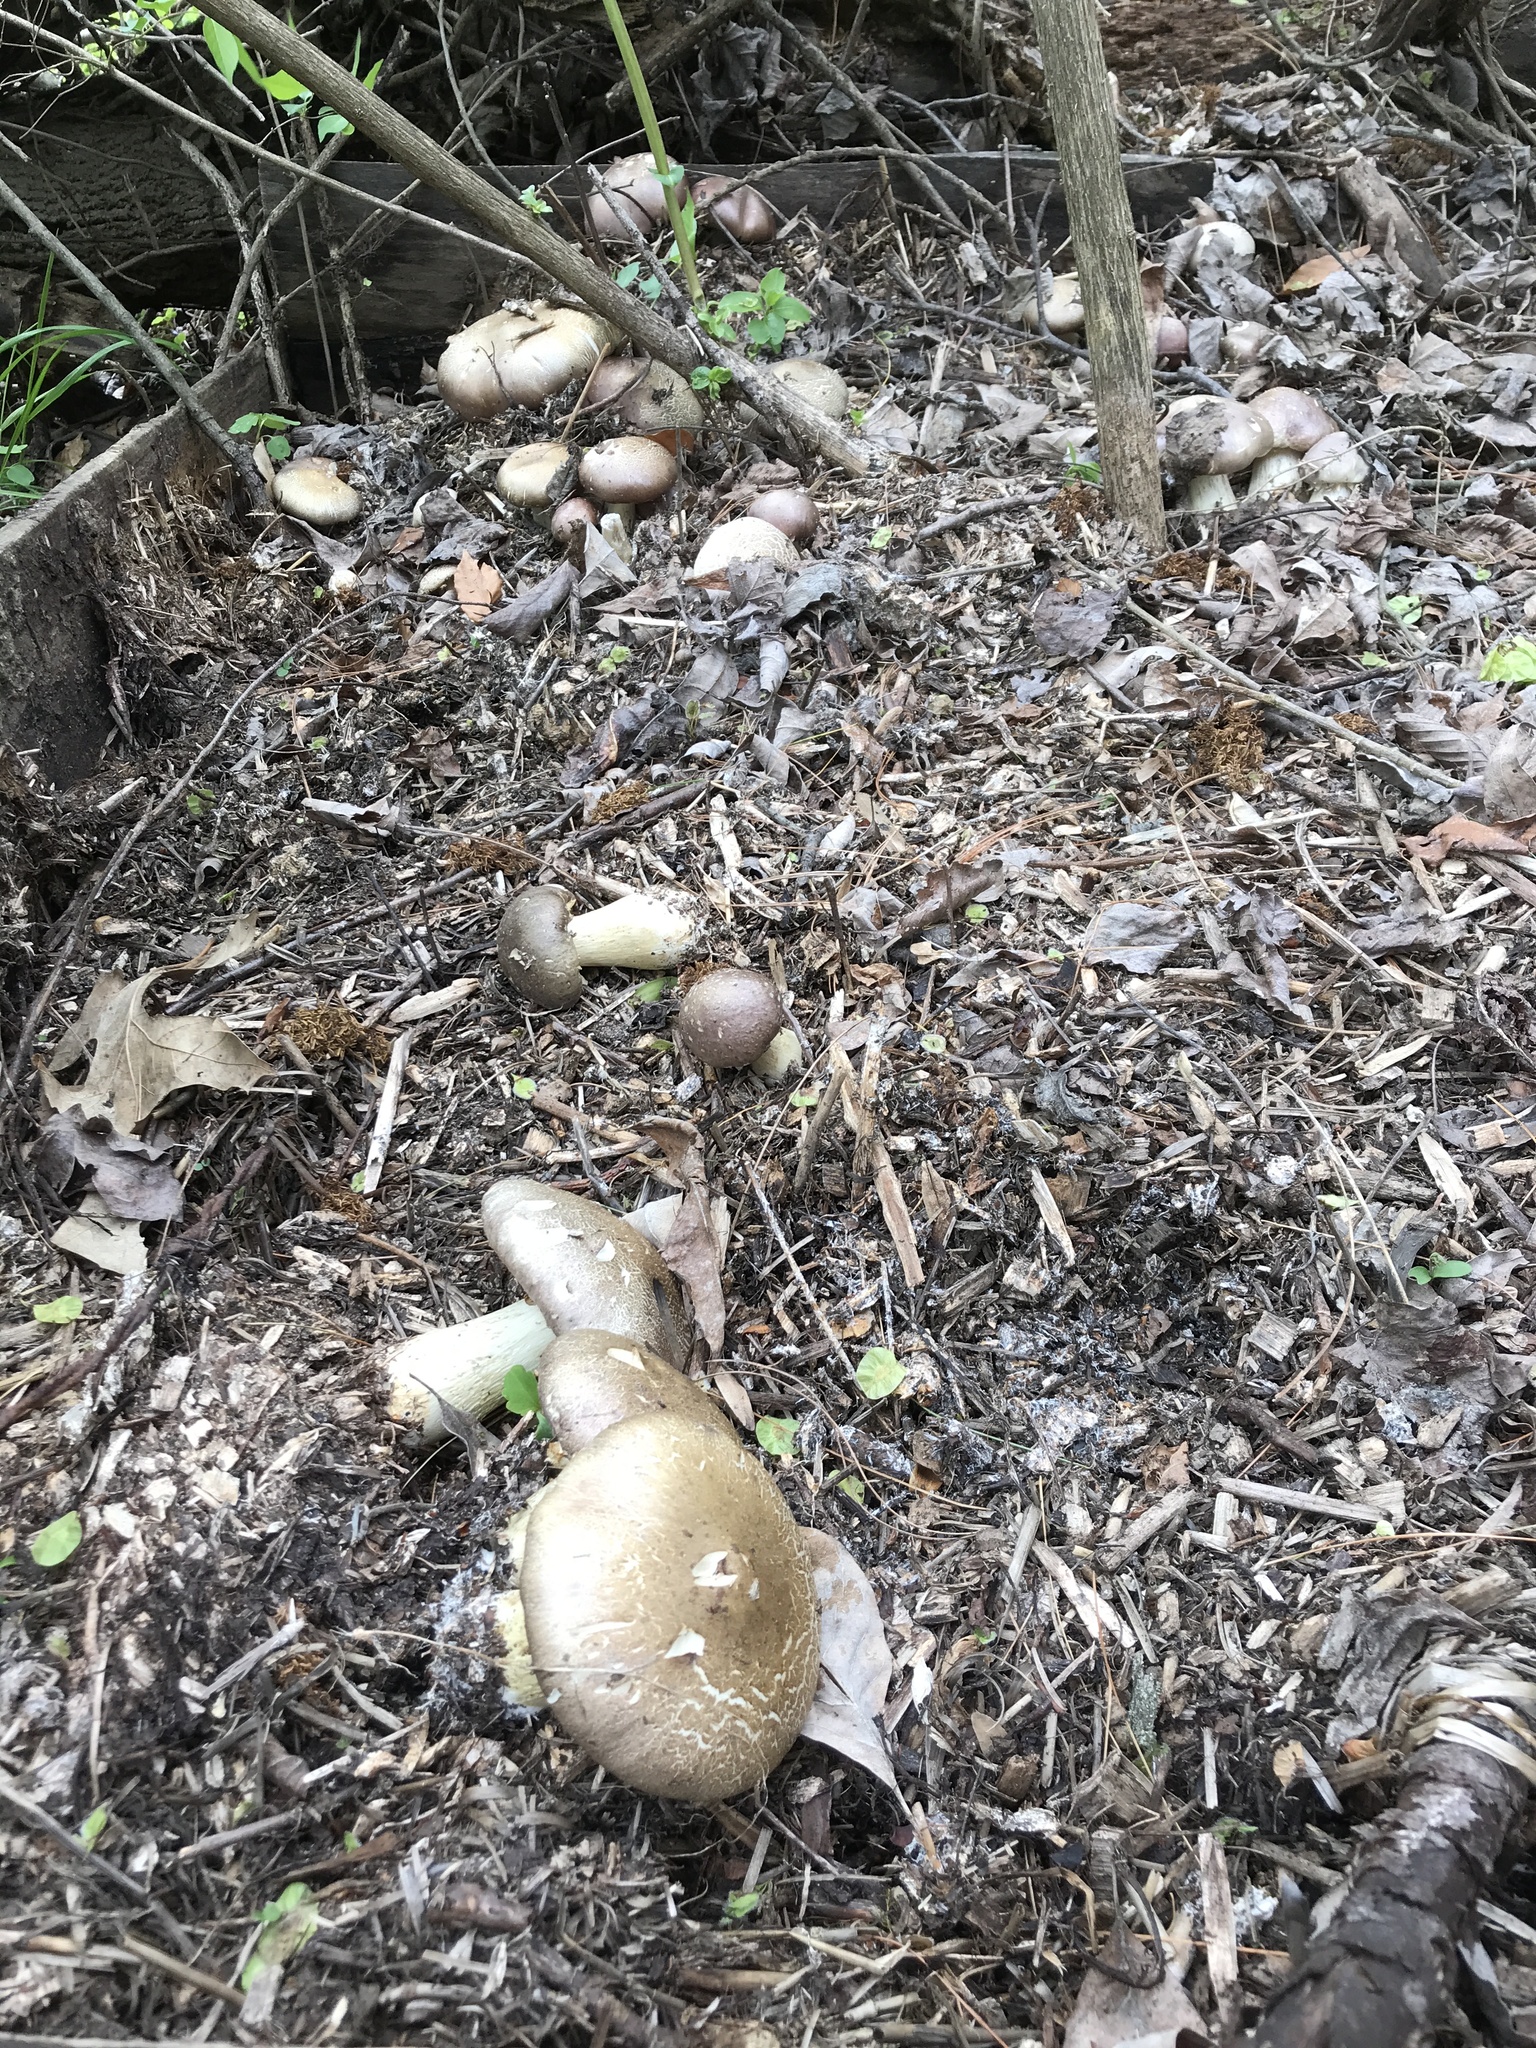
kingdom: Fungi
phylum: Basidiomycota
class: Agaricomycetes
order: Agaricales
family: Strophariaceae
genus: Stropharia
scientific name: Stropharia rugosoannulata
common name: Wine roundhead
